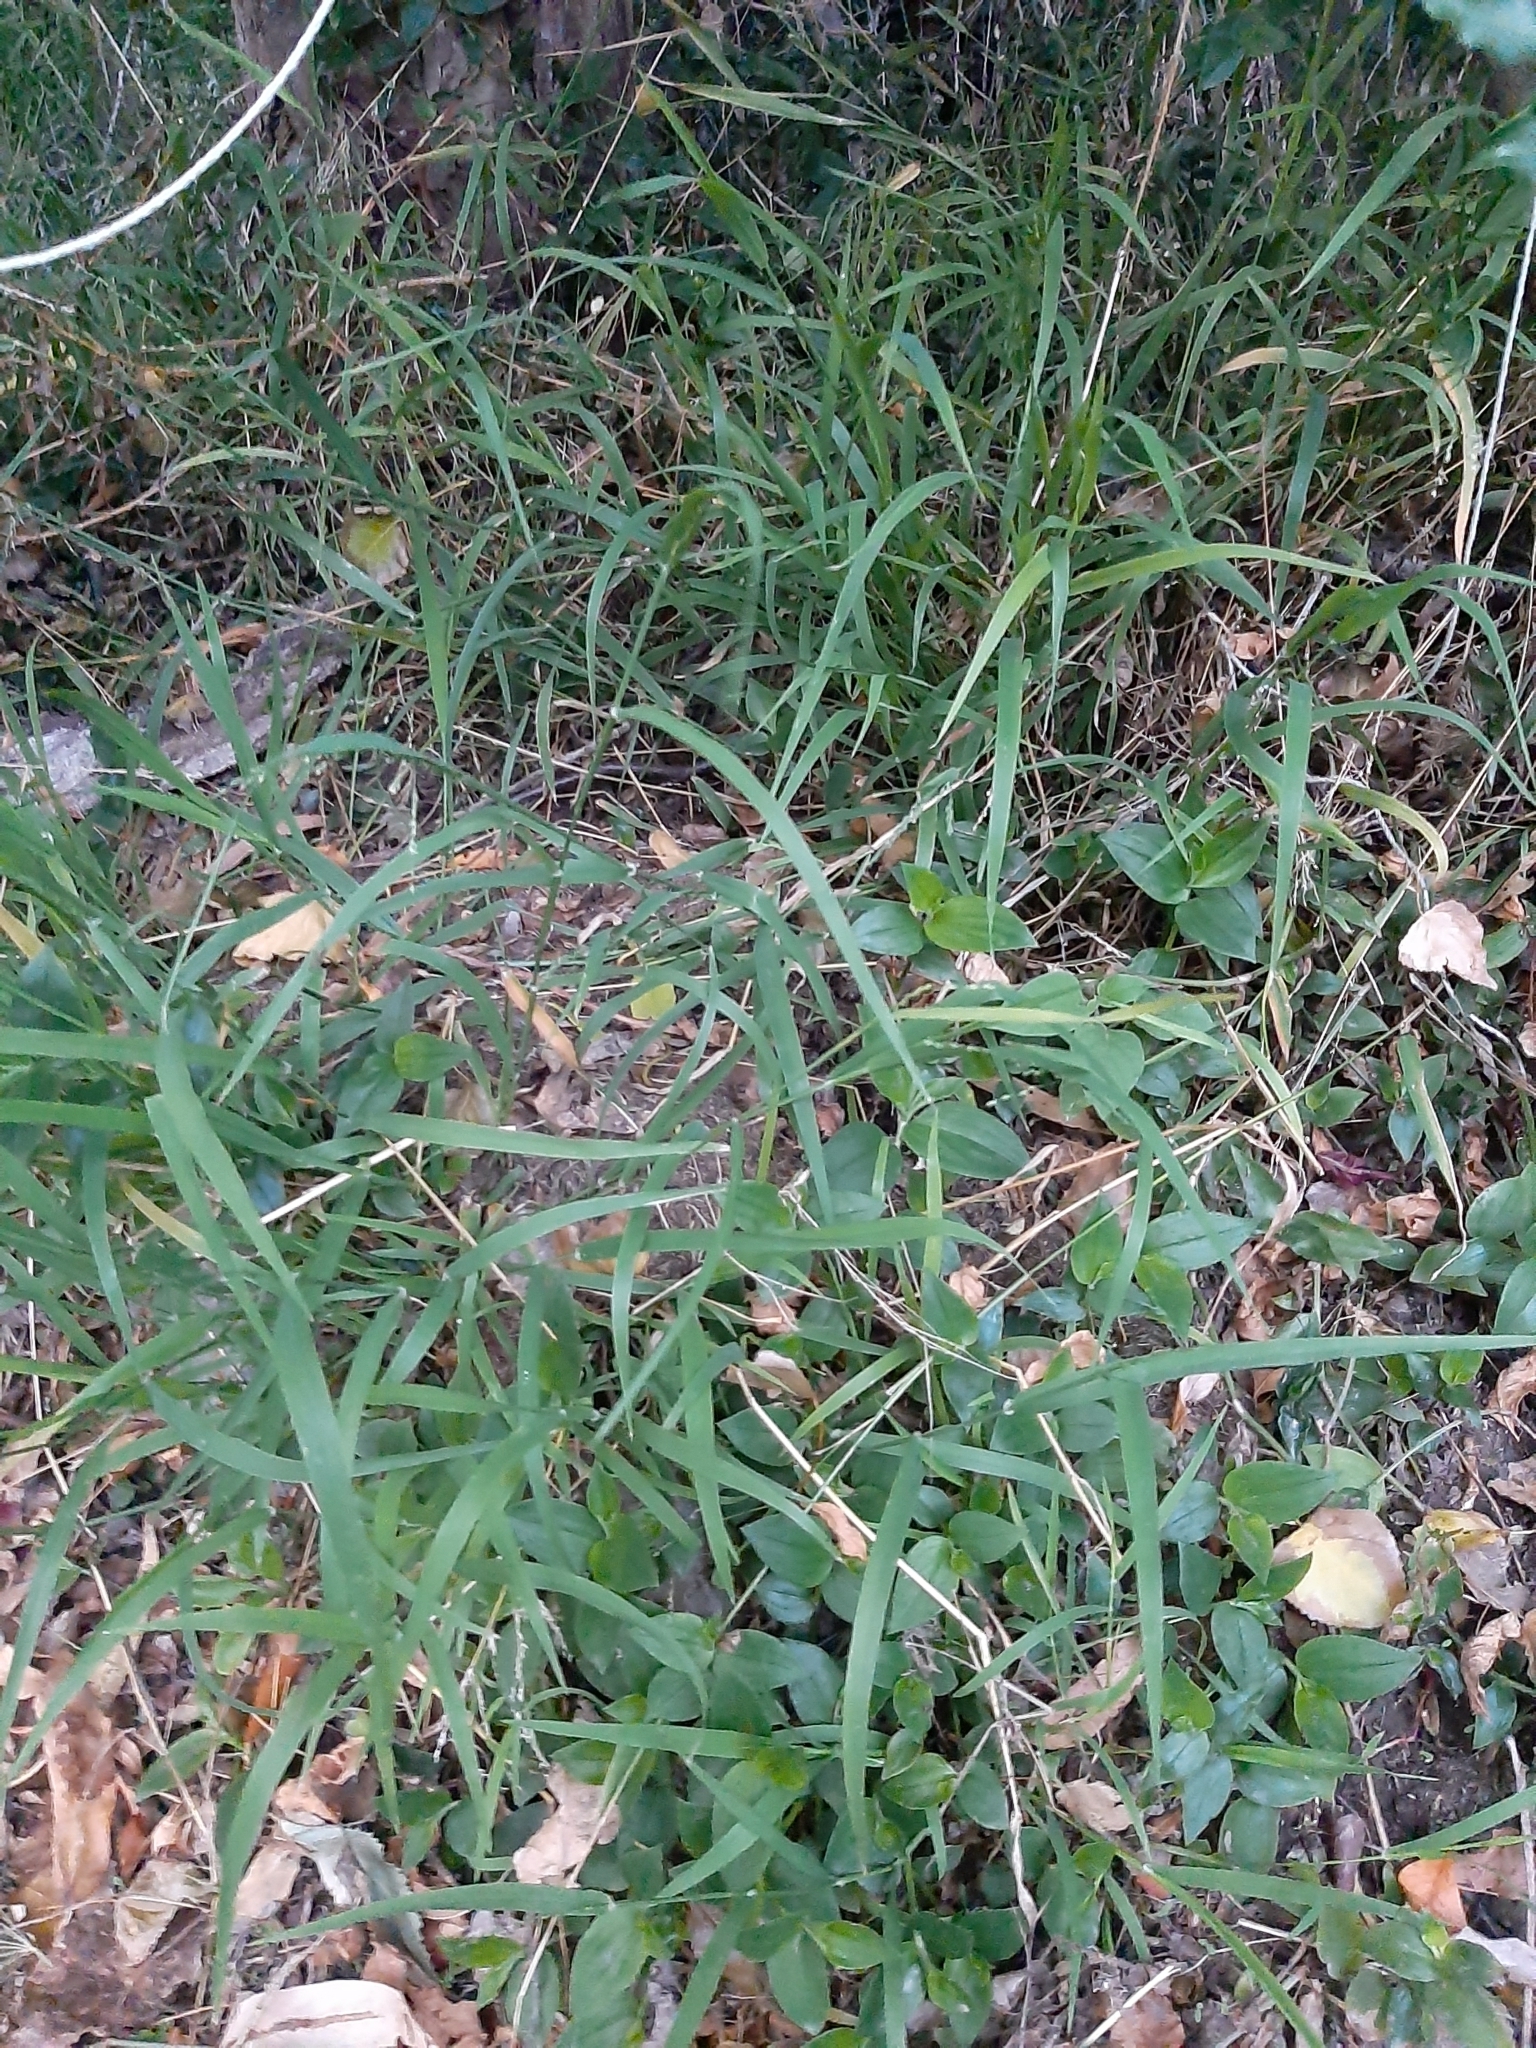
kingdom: Plantae
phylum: Tracheophyta
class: Liliopsida
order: Poales
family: Poaceae
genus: Ehrharta
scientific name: Ehrharta erecta
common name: Panic veldtgrass
